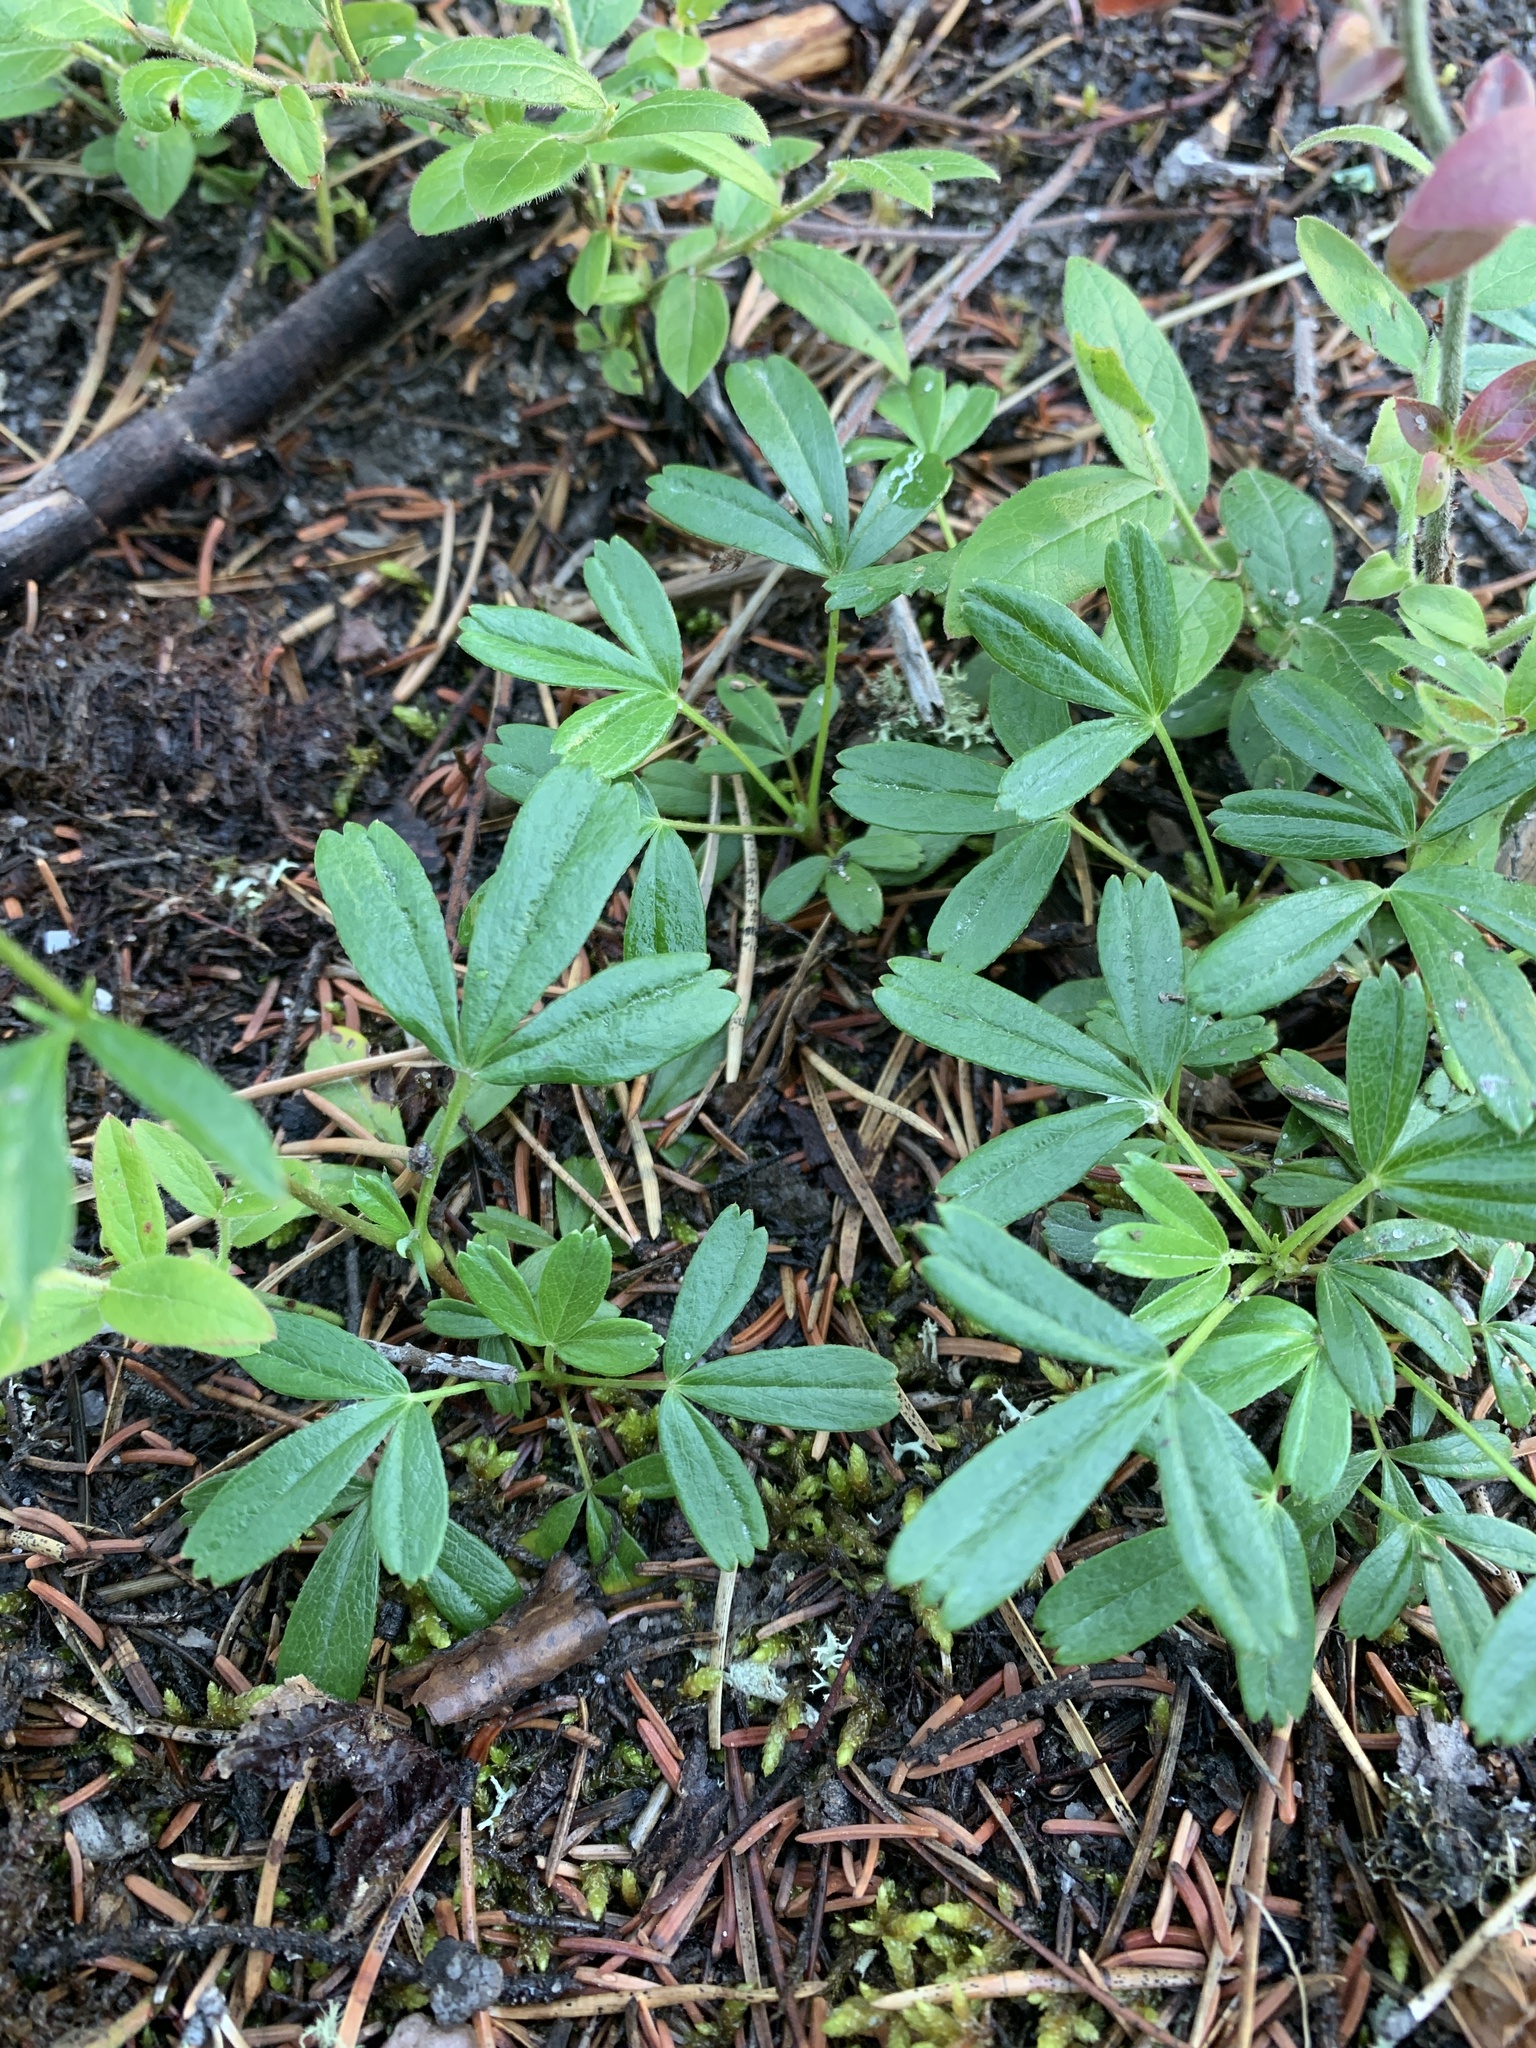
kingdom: Plantae
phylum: Tracheophyta
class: Magnoliopsida
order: Rosales
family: Rosaceae
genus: Sibbaldia
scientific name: Sibbaldia tridentata
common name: Three-toothed cinquefoil
